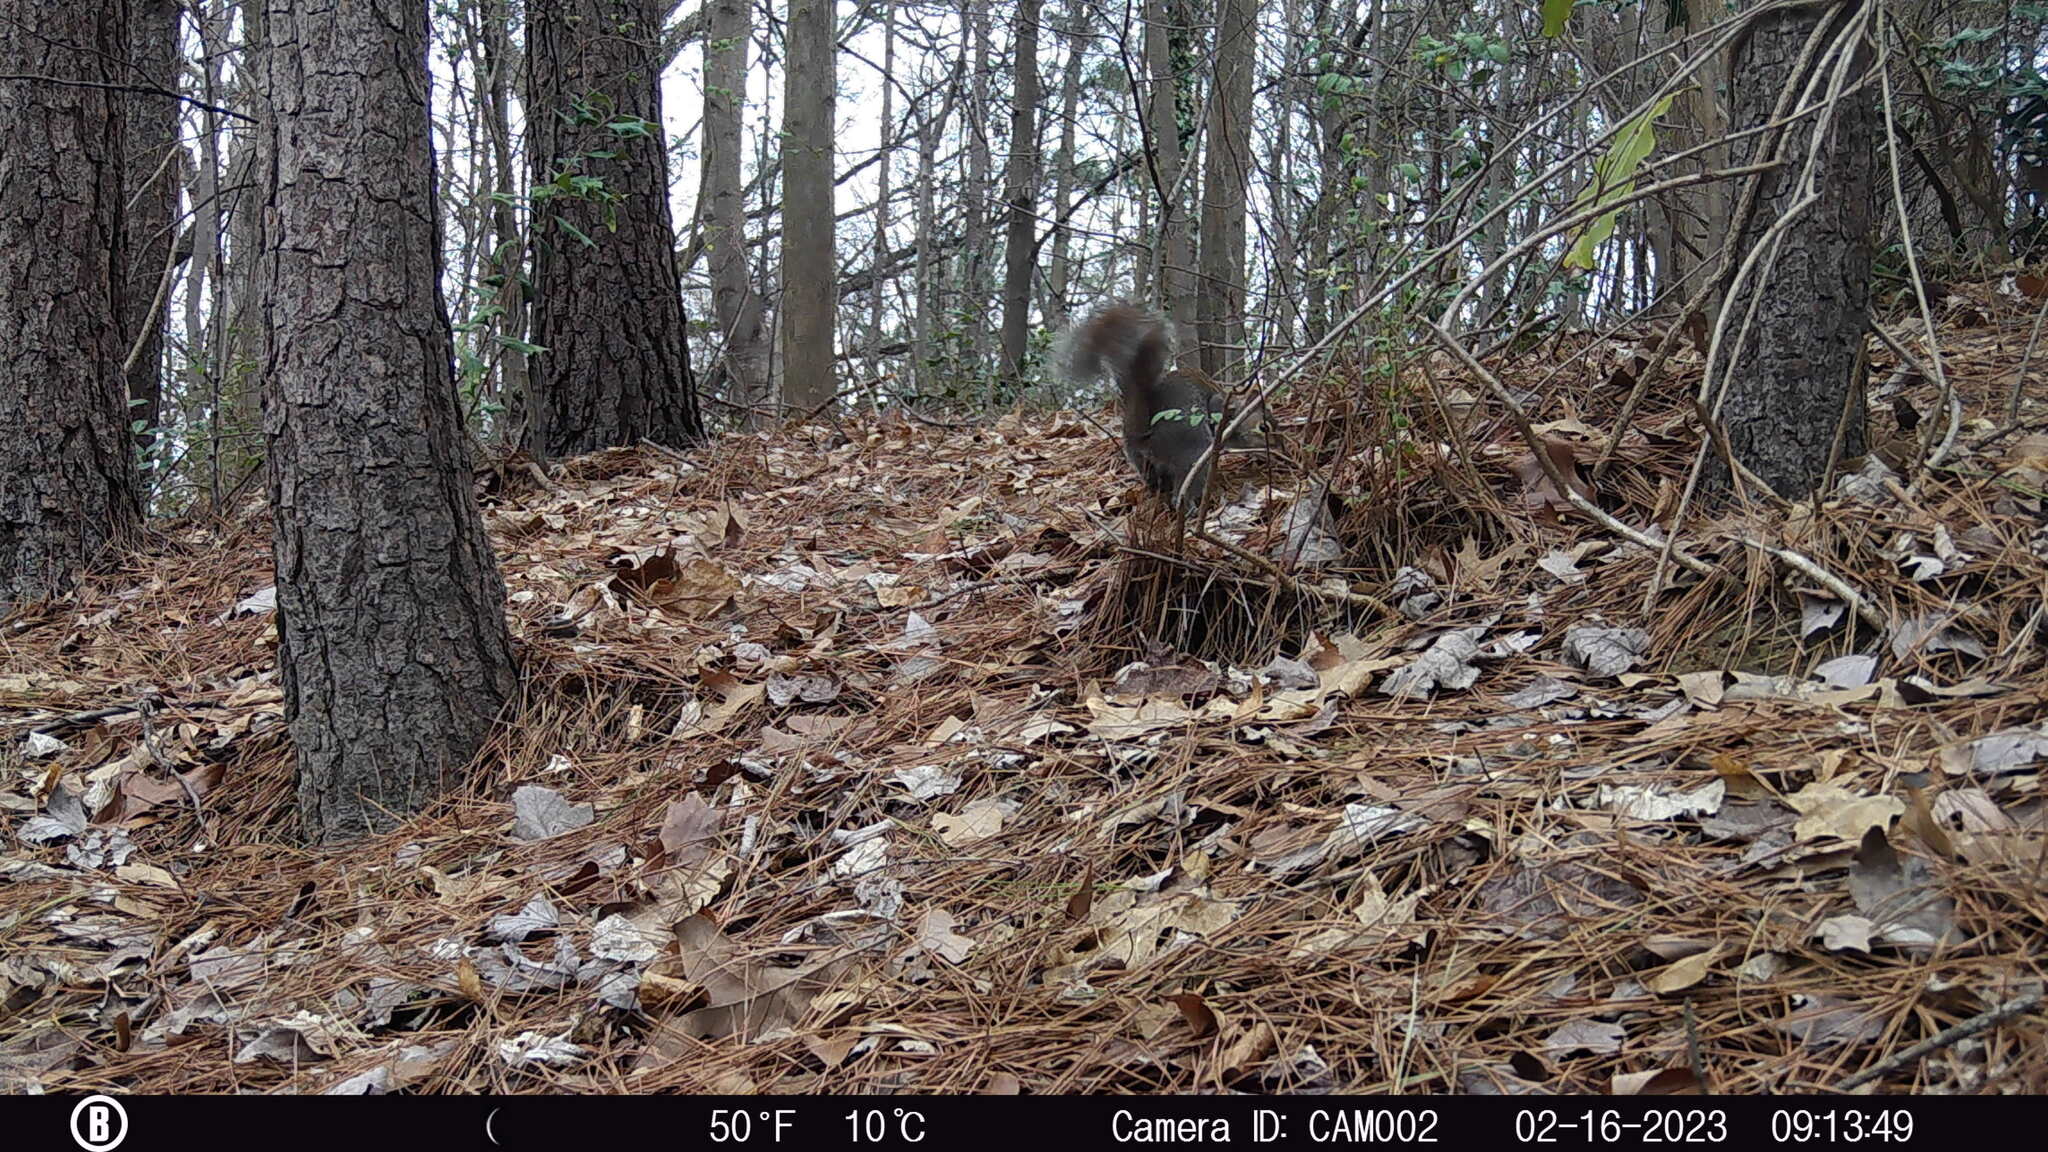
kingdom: Animalia
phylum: Chordata
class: Mammalia
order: Rodentia
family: Sciuridae
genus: Sciurus
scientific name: Sciurus carolinensis
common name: Eastern gray squirrel
